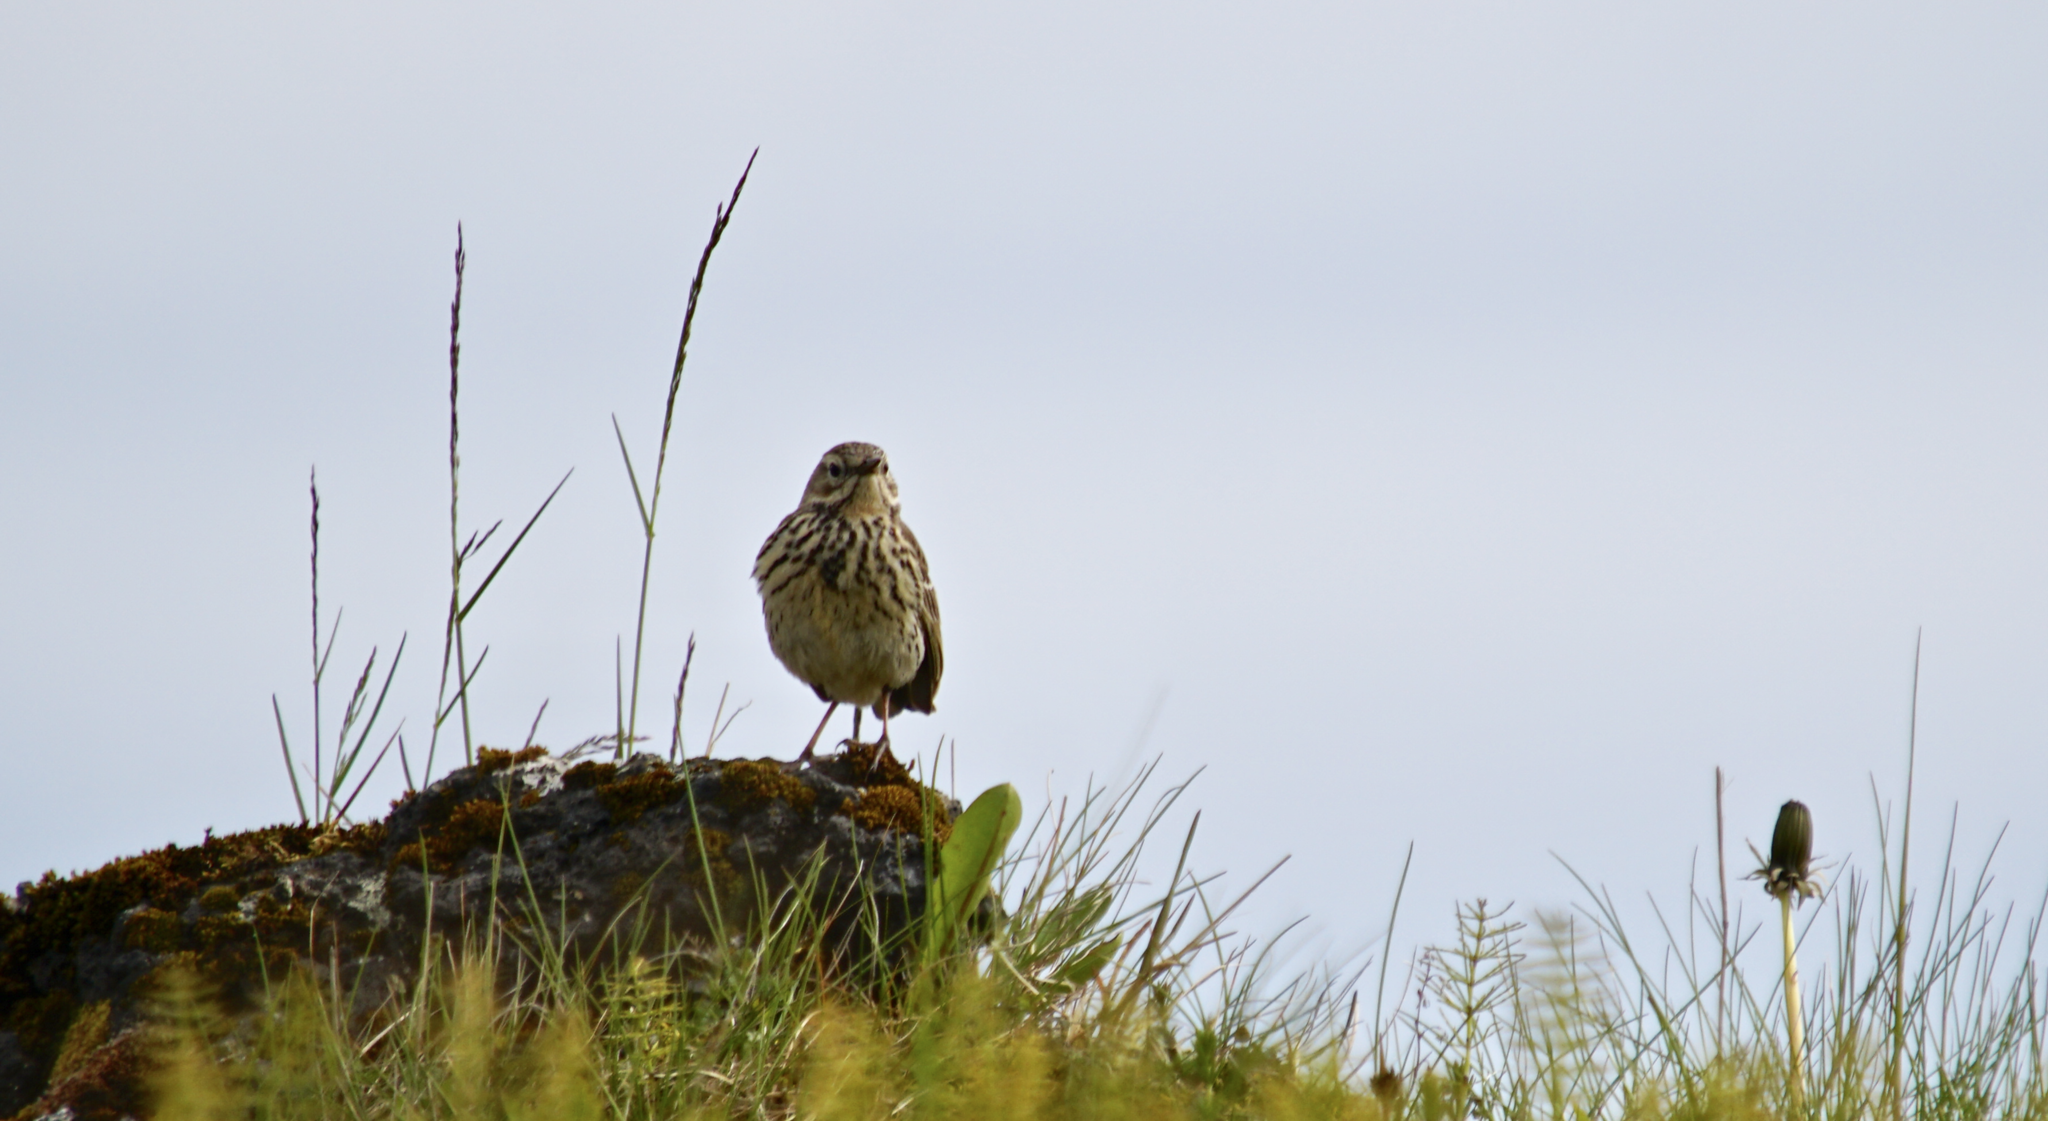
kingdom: Animalia
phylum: Chordata
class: Aves
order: Passeriformes
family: Motacillidae
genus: Anthus
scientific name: Anthus pratensis
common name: Meadow pipit
